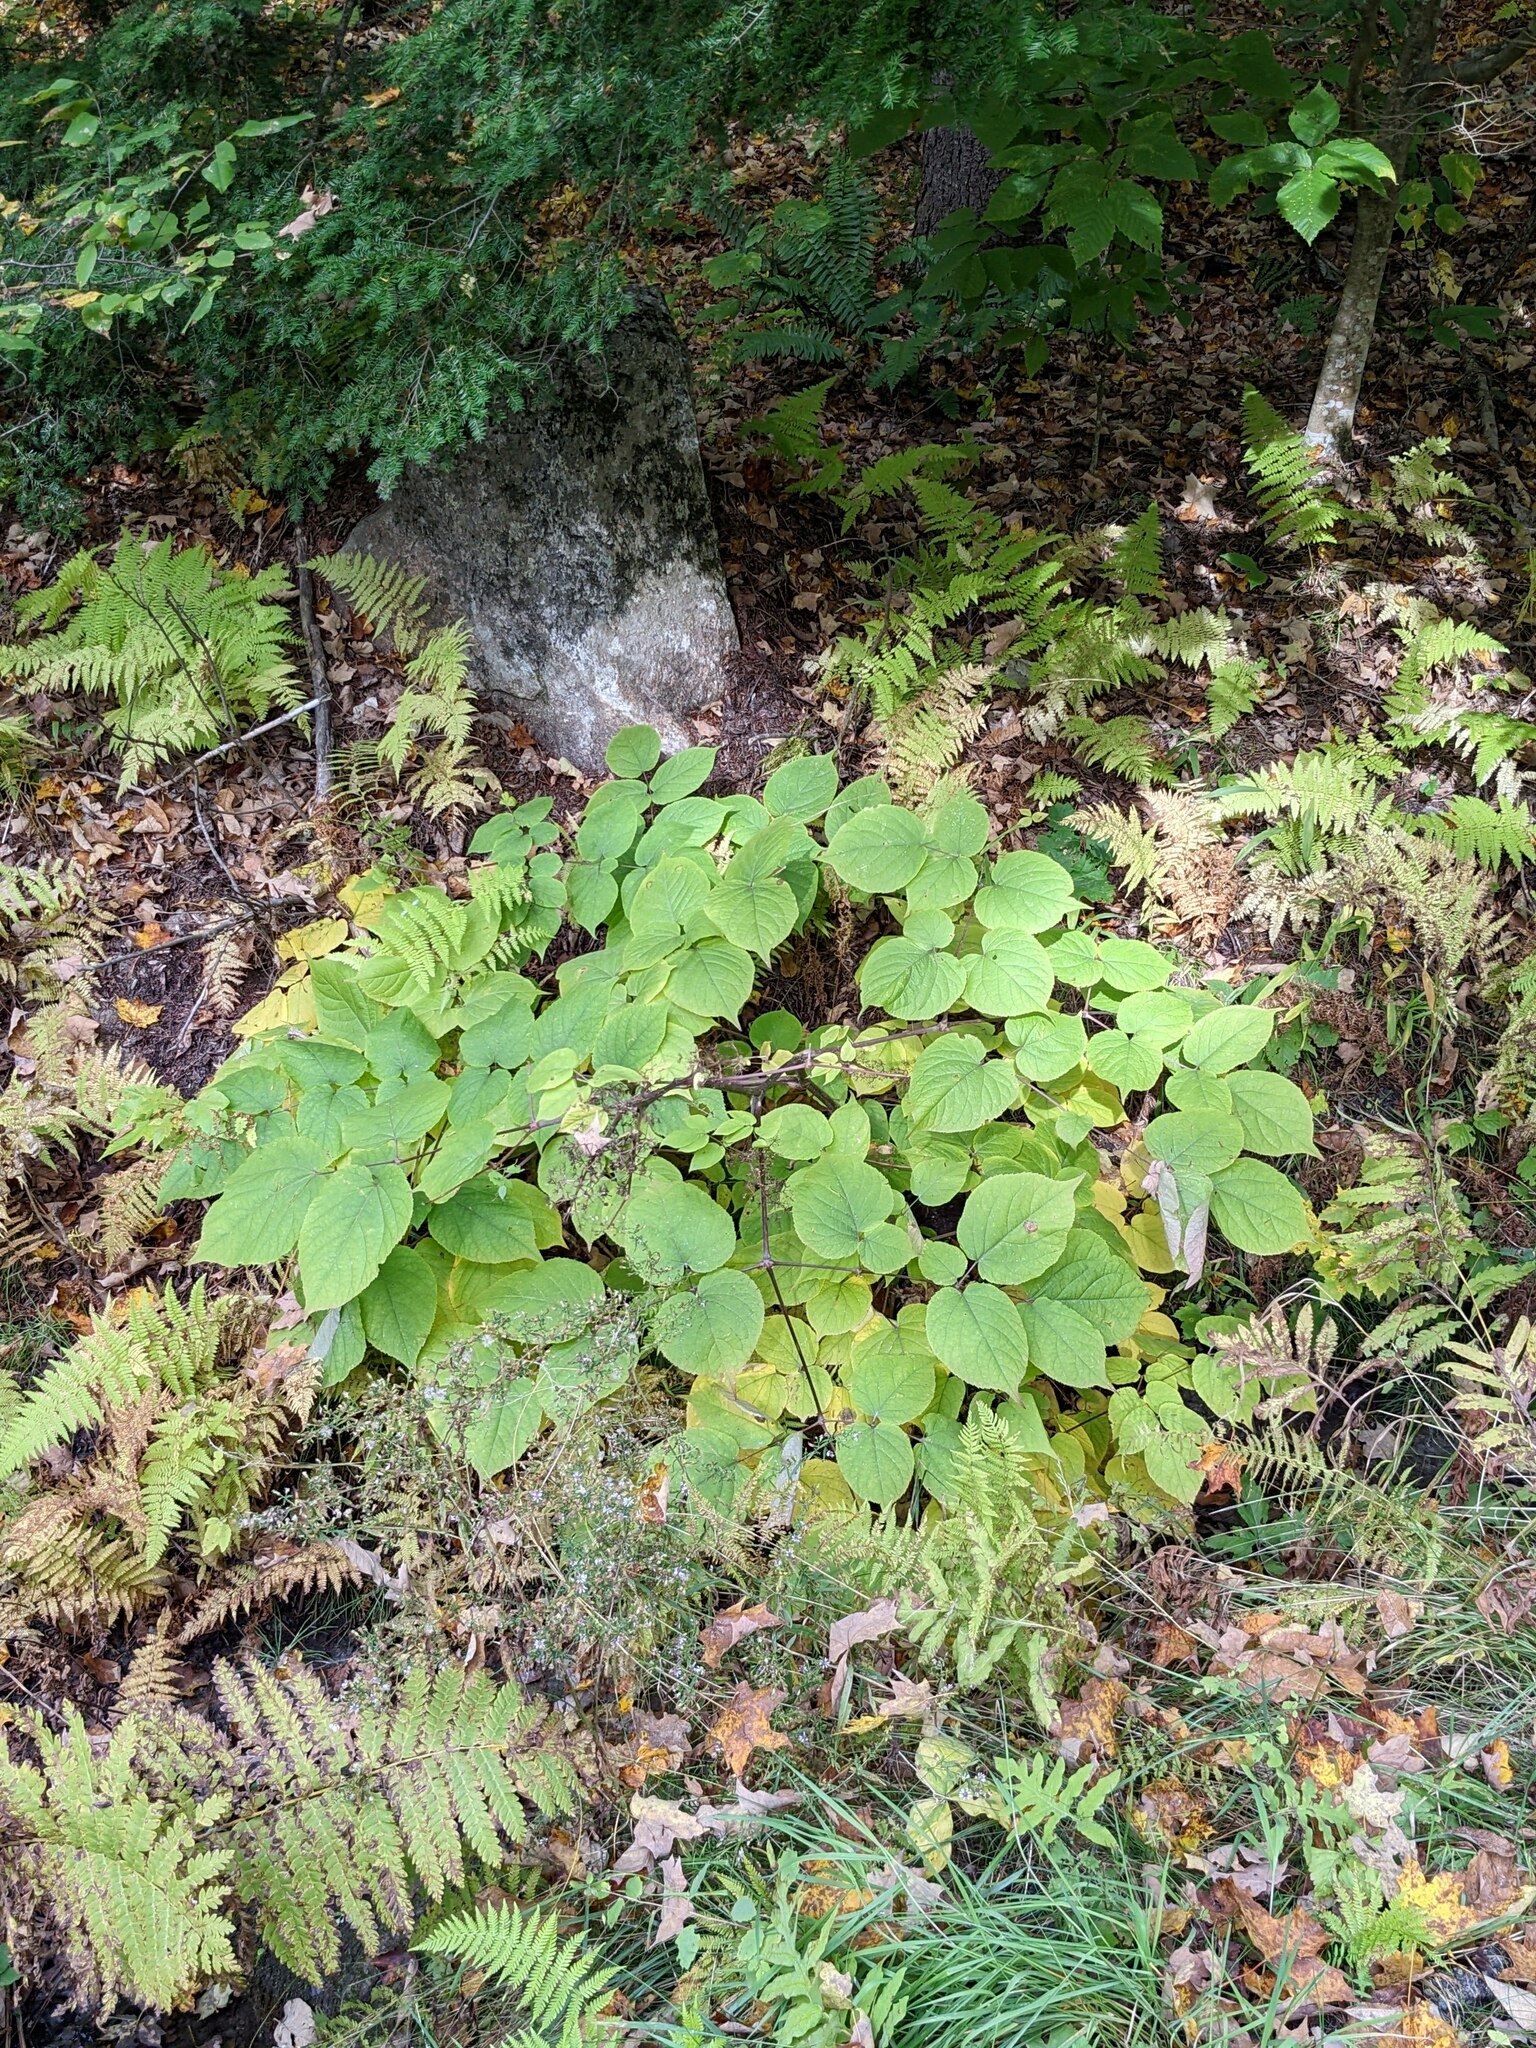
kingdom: Plantae
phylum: Tracheophyta
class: Magnoliopsida
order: Dipsacales
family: Viburnaceae
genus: Viburnum
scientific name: Viburnum lantanoides
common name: Hobblebush
